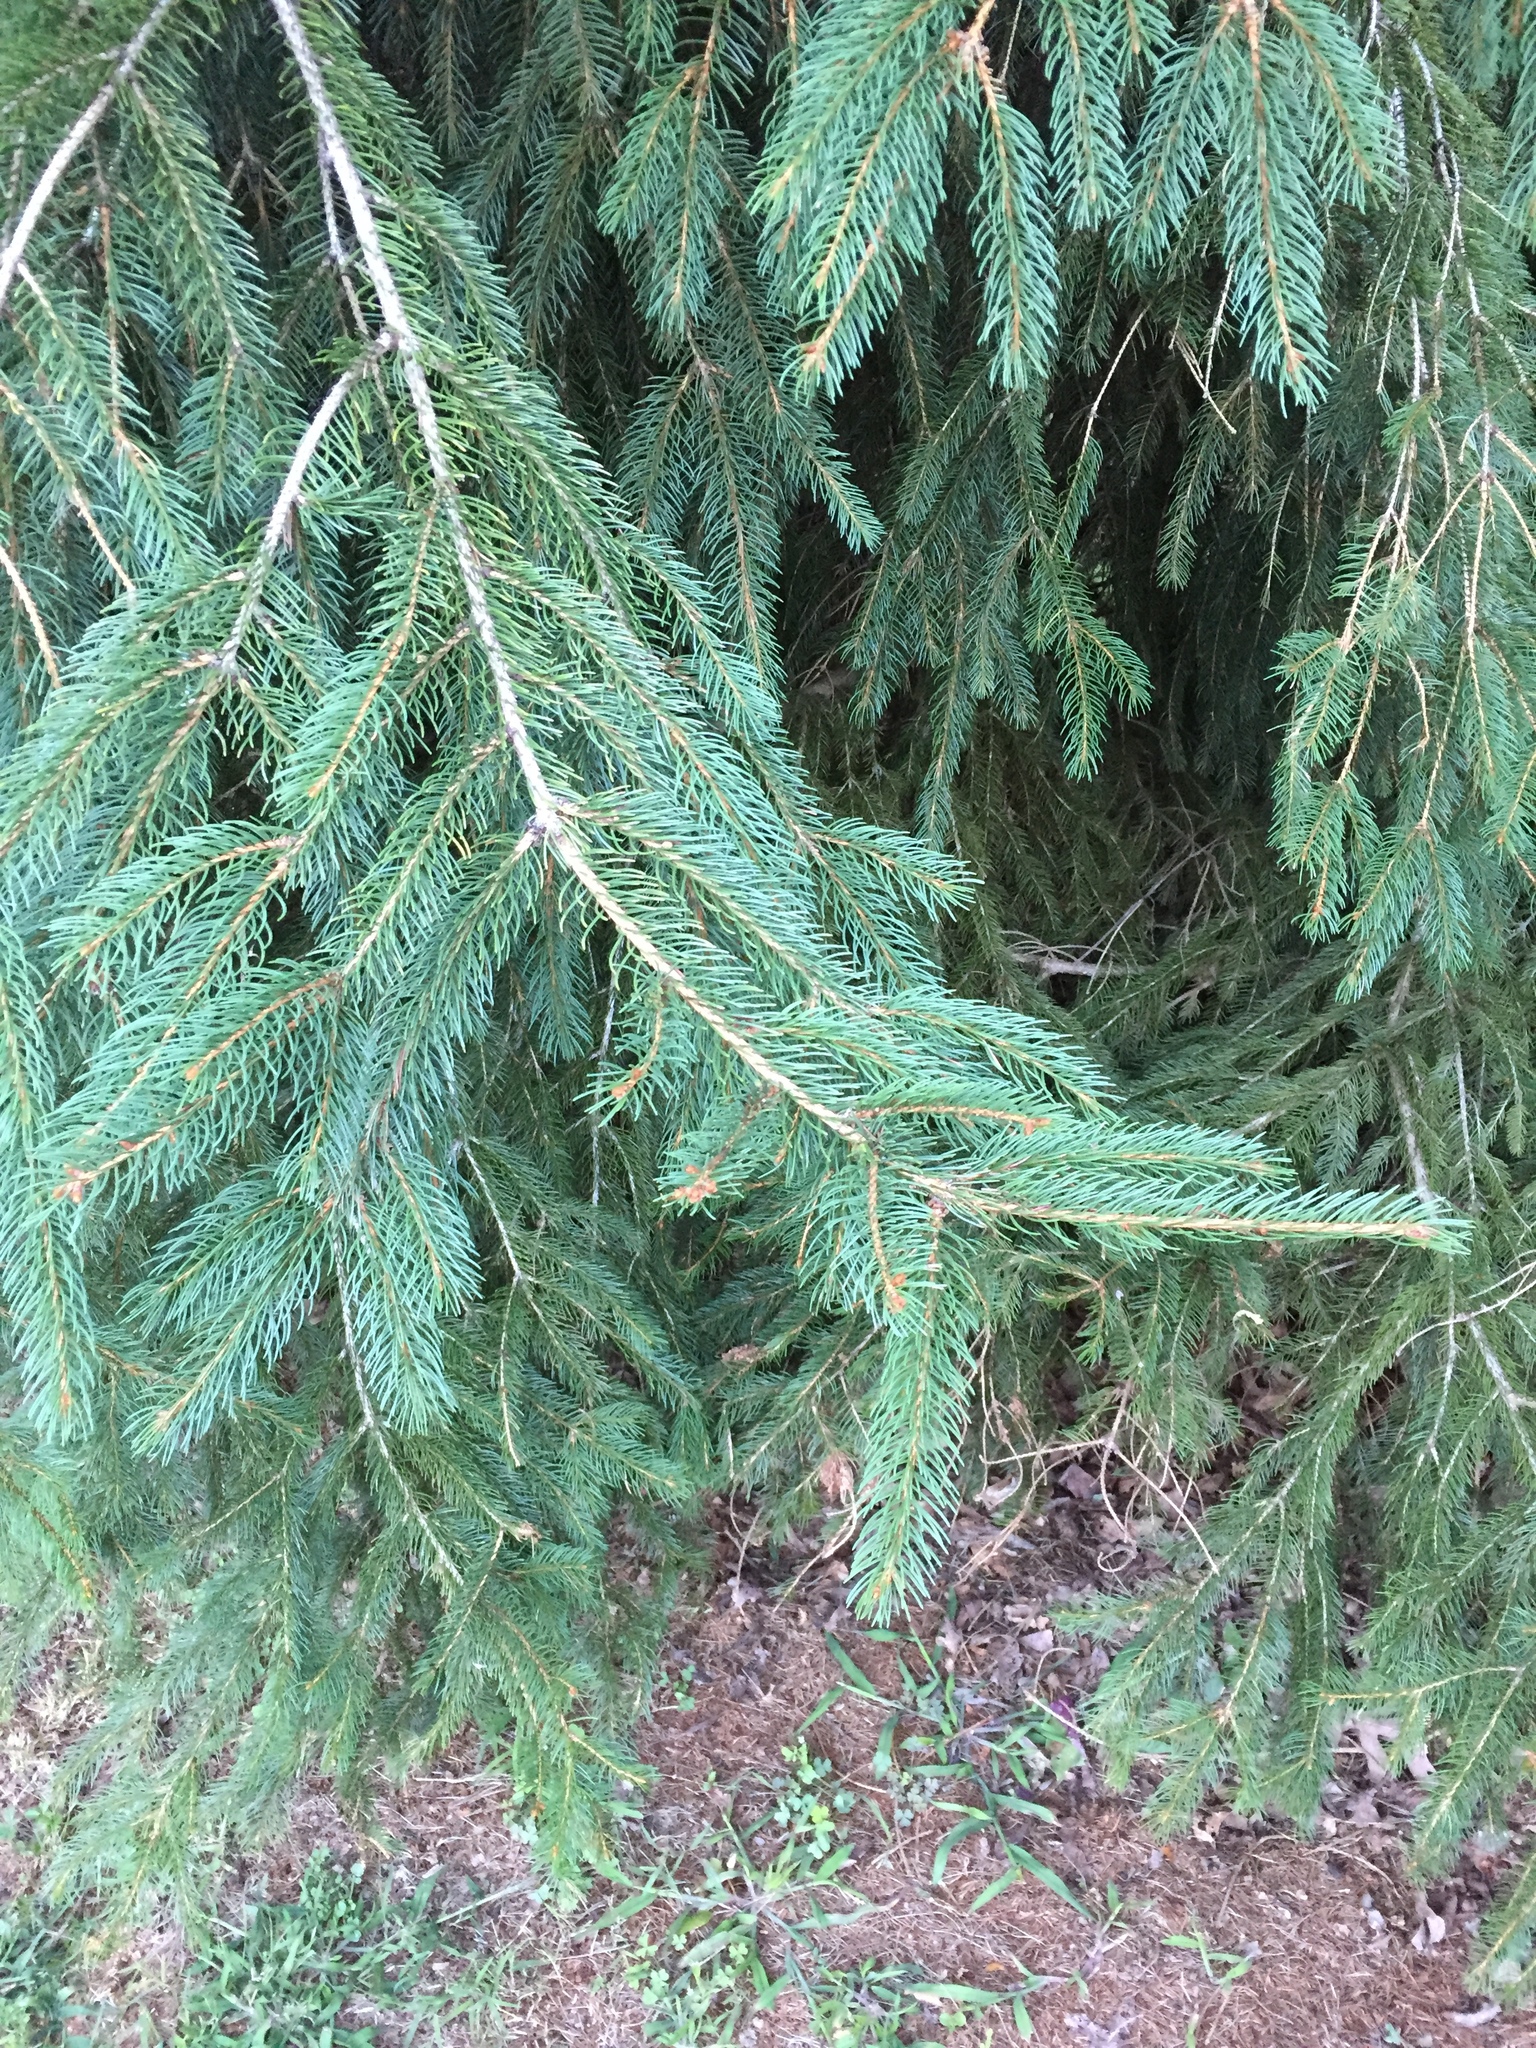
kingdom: Plantae
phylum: Tracheophyta
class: Pinopsida
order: Pinales
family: Pinaceae
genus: Picea
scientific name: Picea abies
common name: Norway spruce
